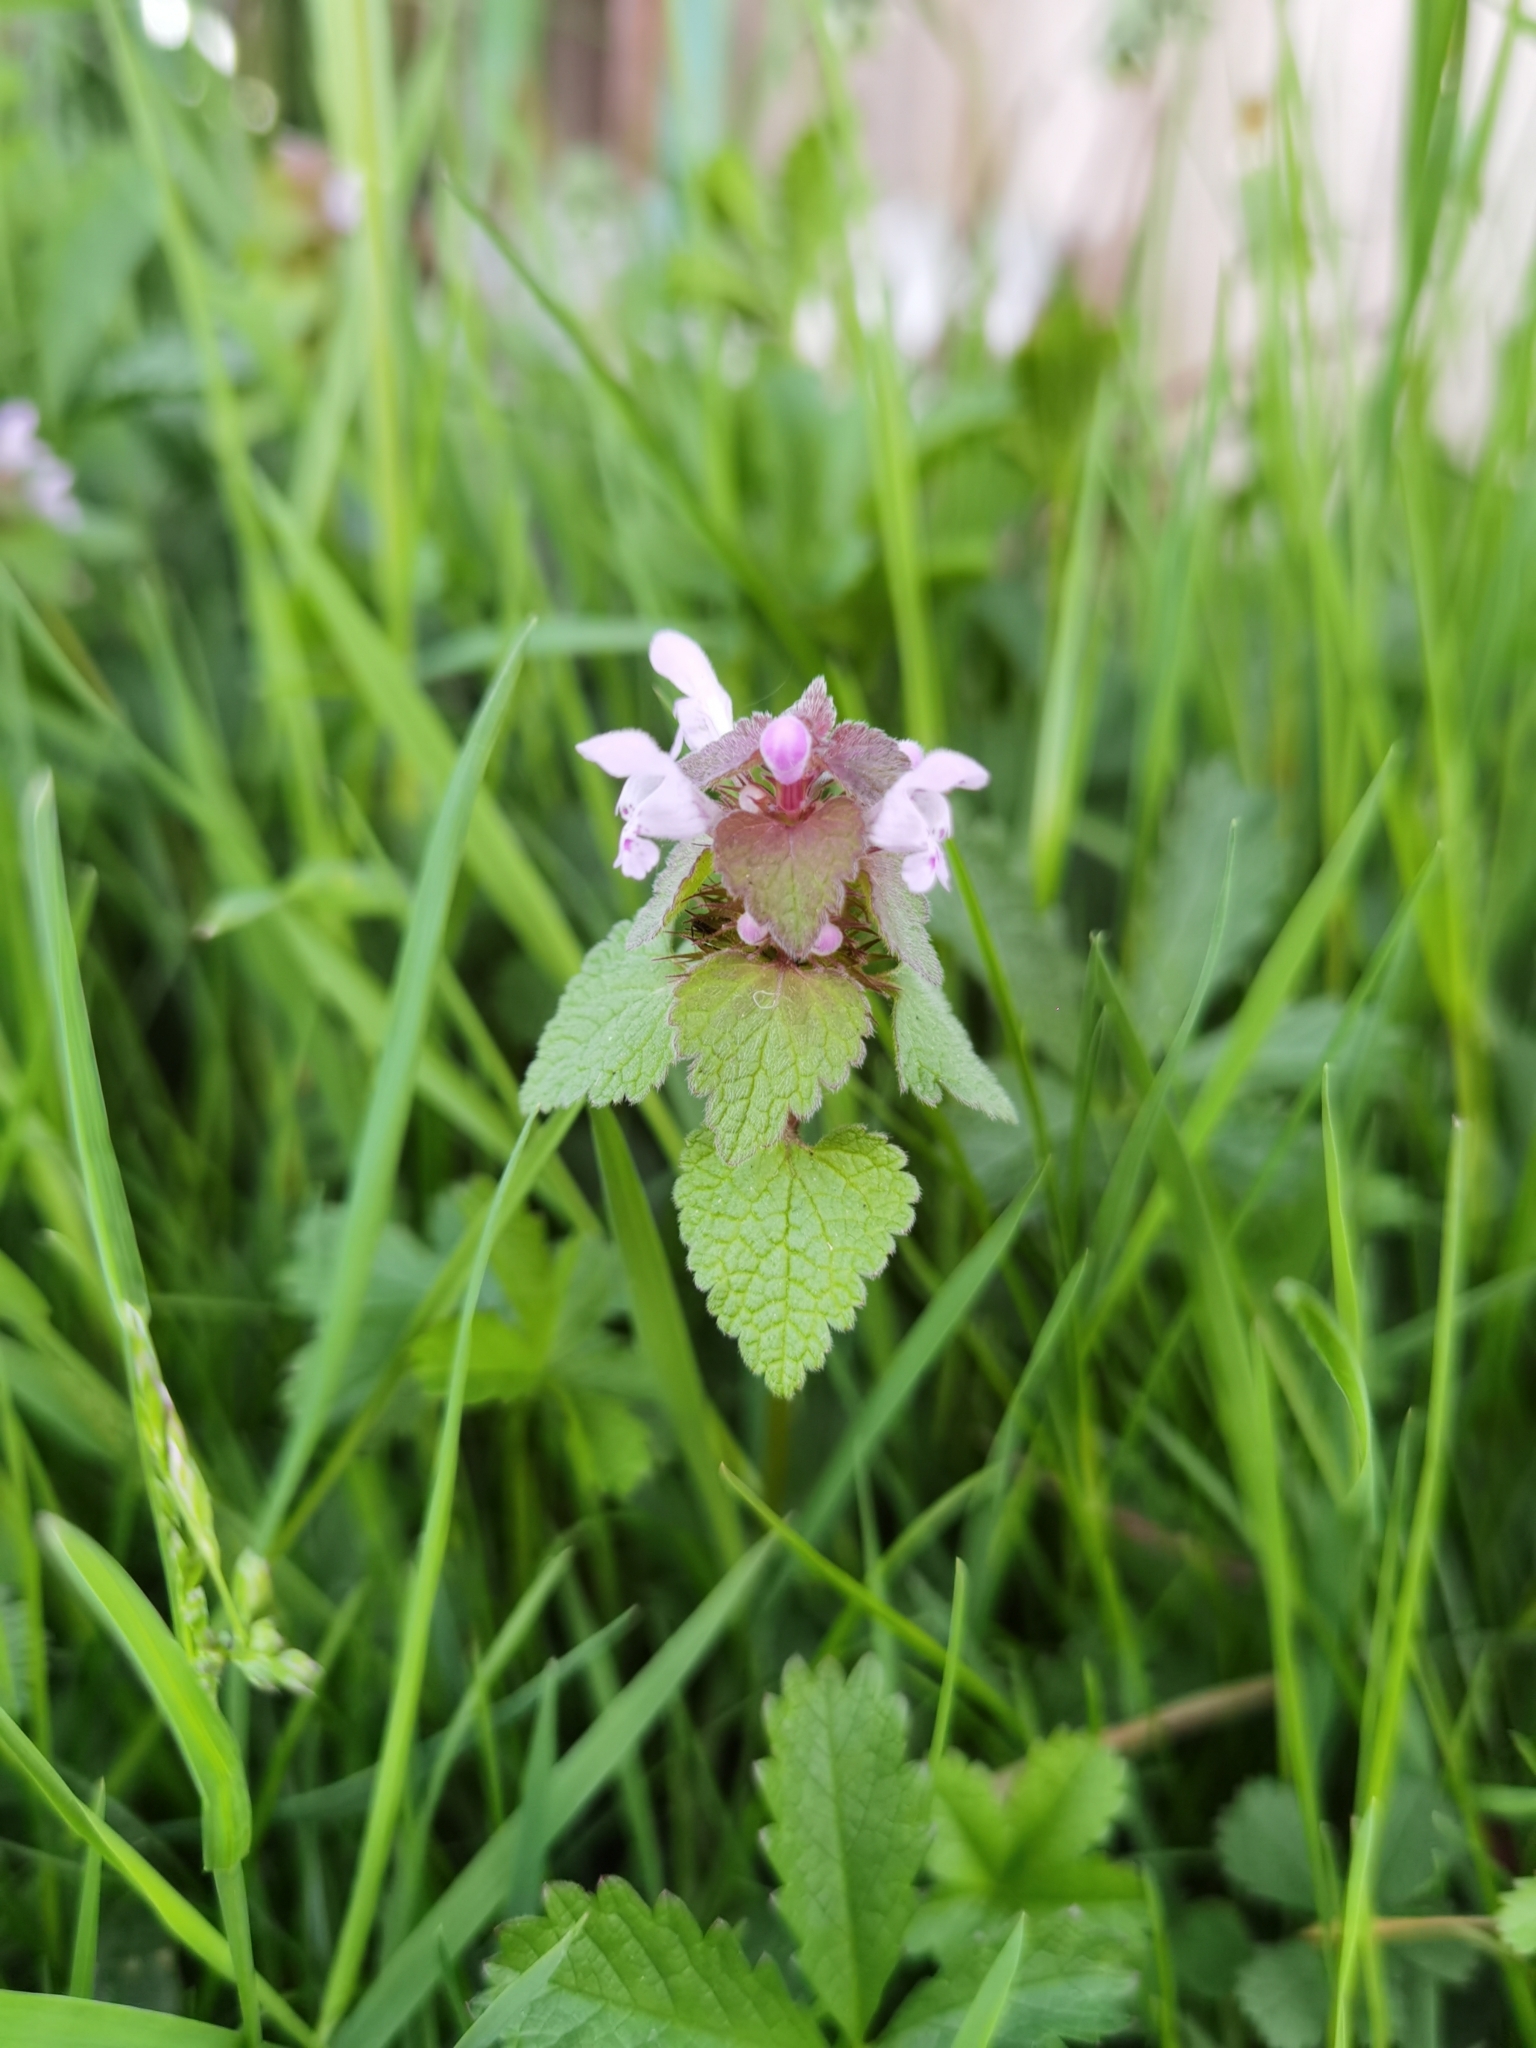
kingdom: Plantae
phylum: Tracheophyta
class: Magnoliopsida
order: Lamiales
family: Lamiaceae
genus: Lamium
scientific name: Lamium purpureum
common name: Red dead-nettle
